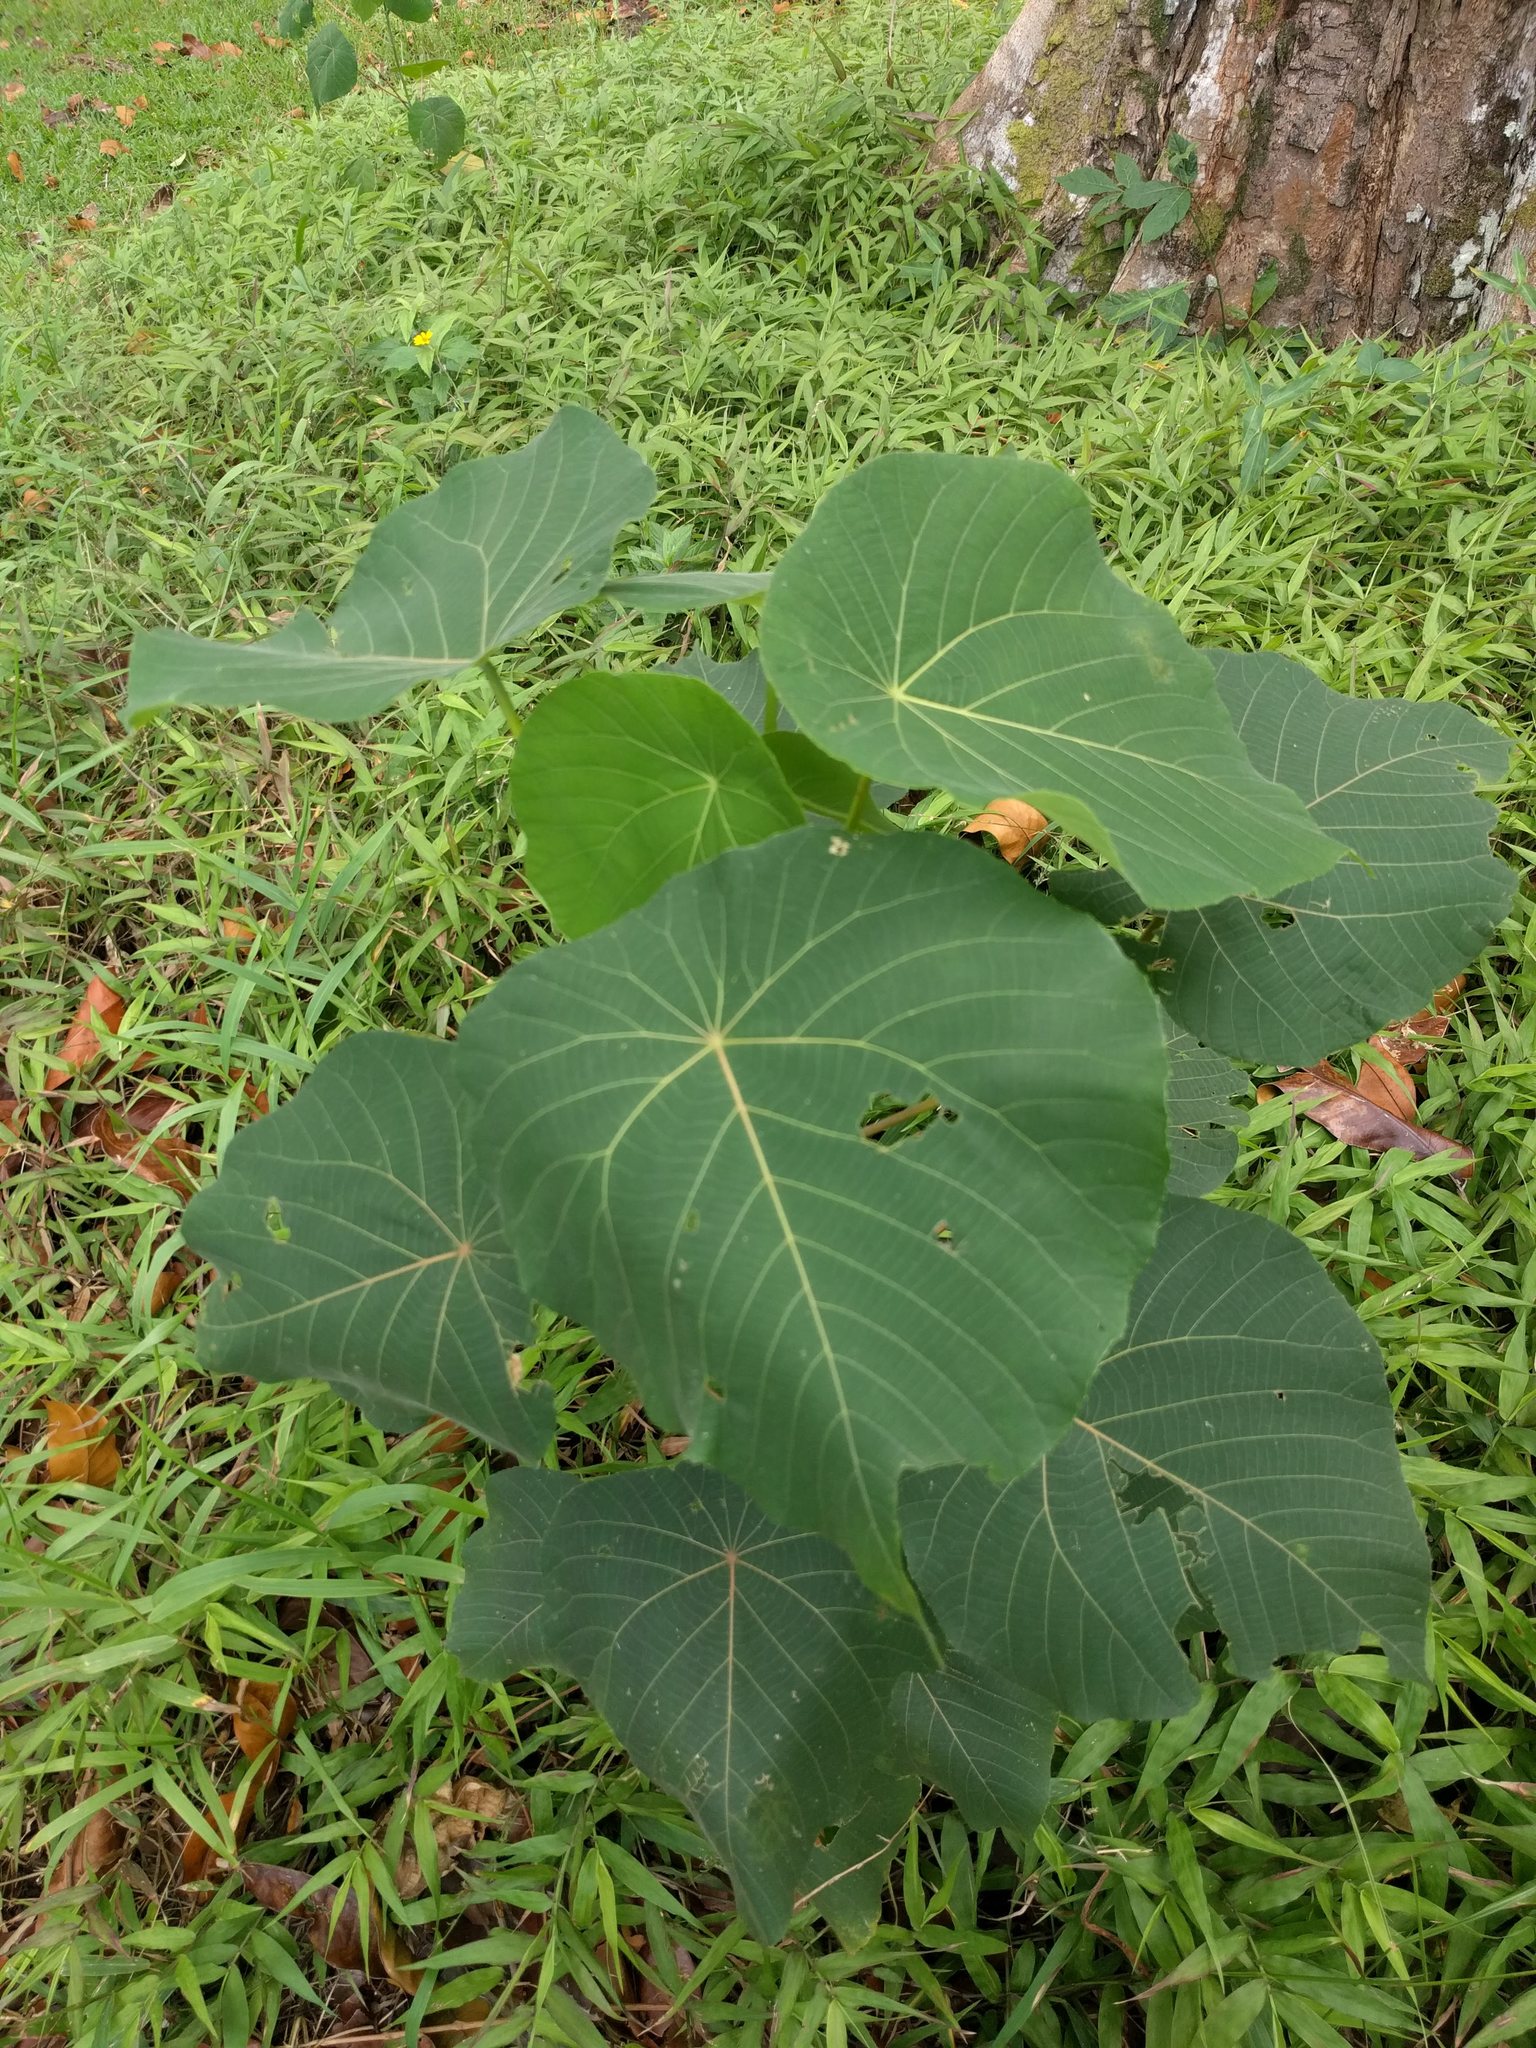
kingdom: Plantae
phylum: Tracheophyta
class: Magnoliopsida
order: Malpighiales
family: Euphorbiaceae
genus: Macaranga
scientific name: Macaranga tanarius
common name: Parasol leaf tree
